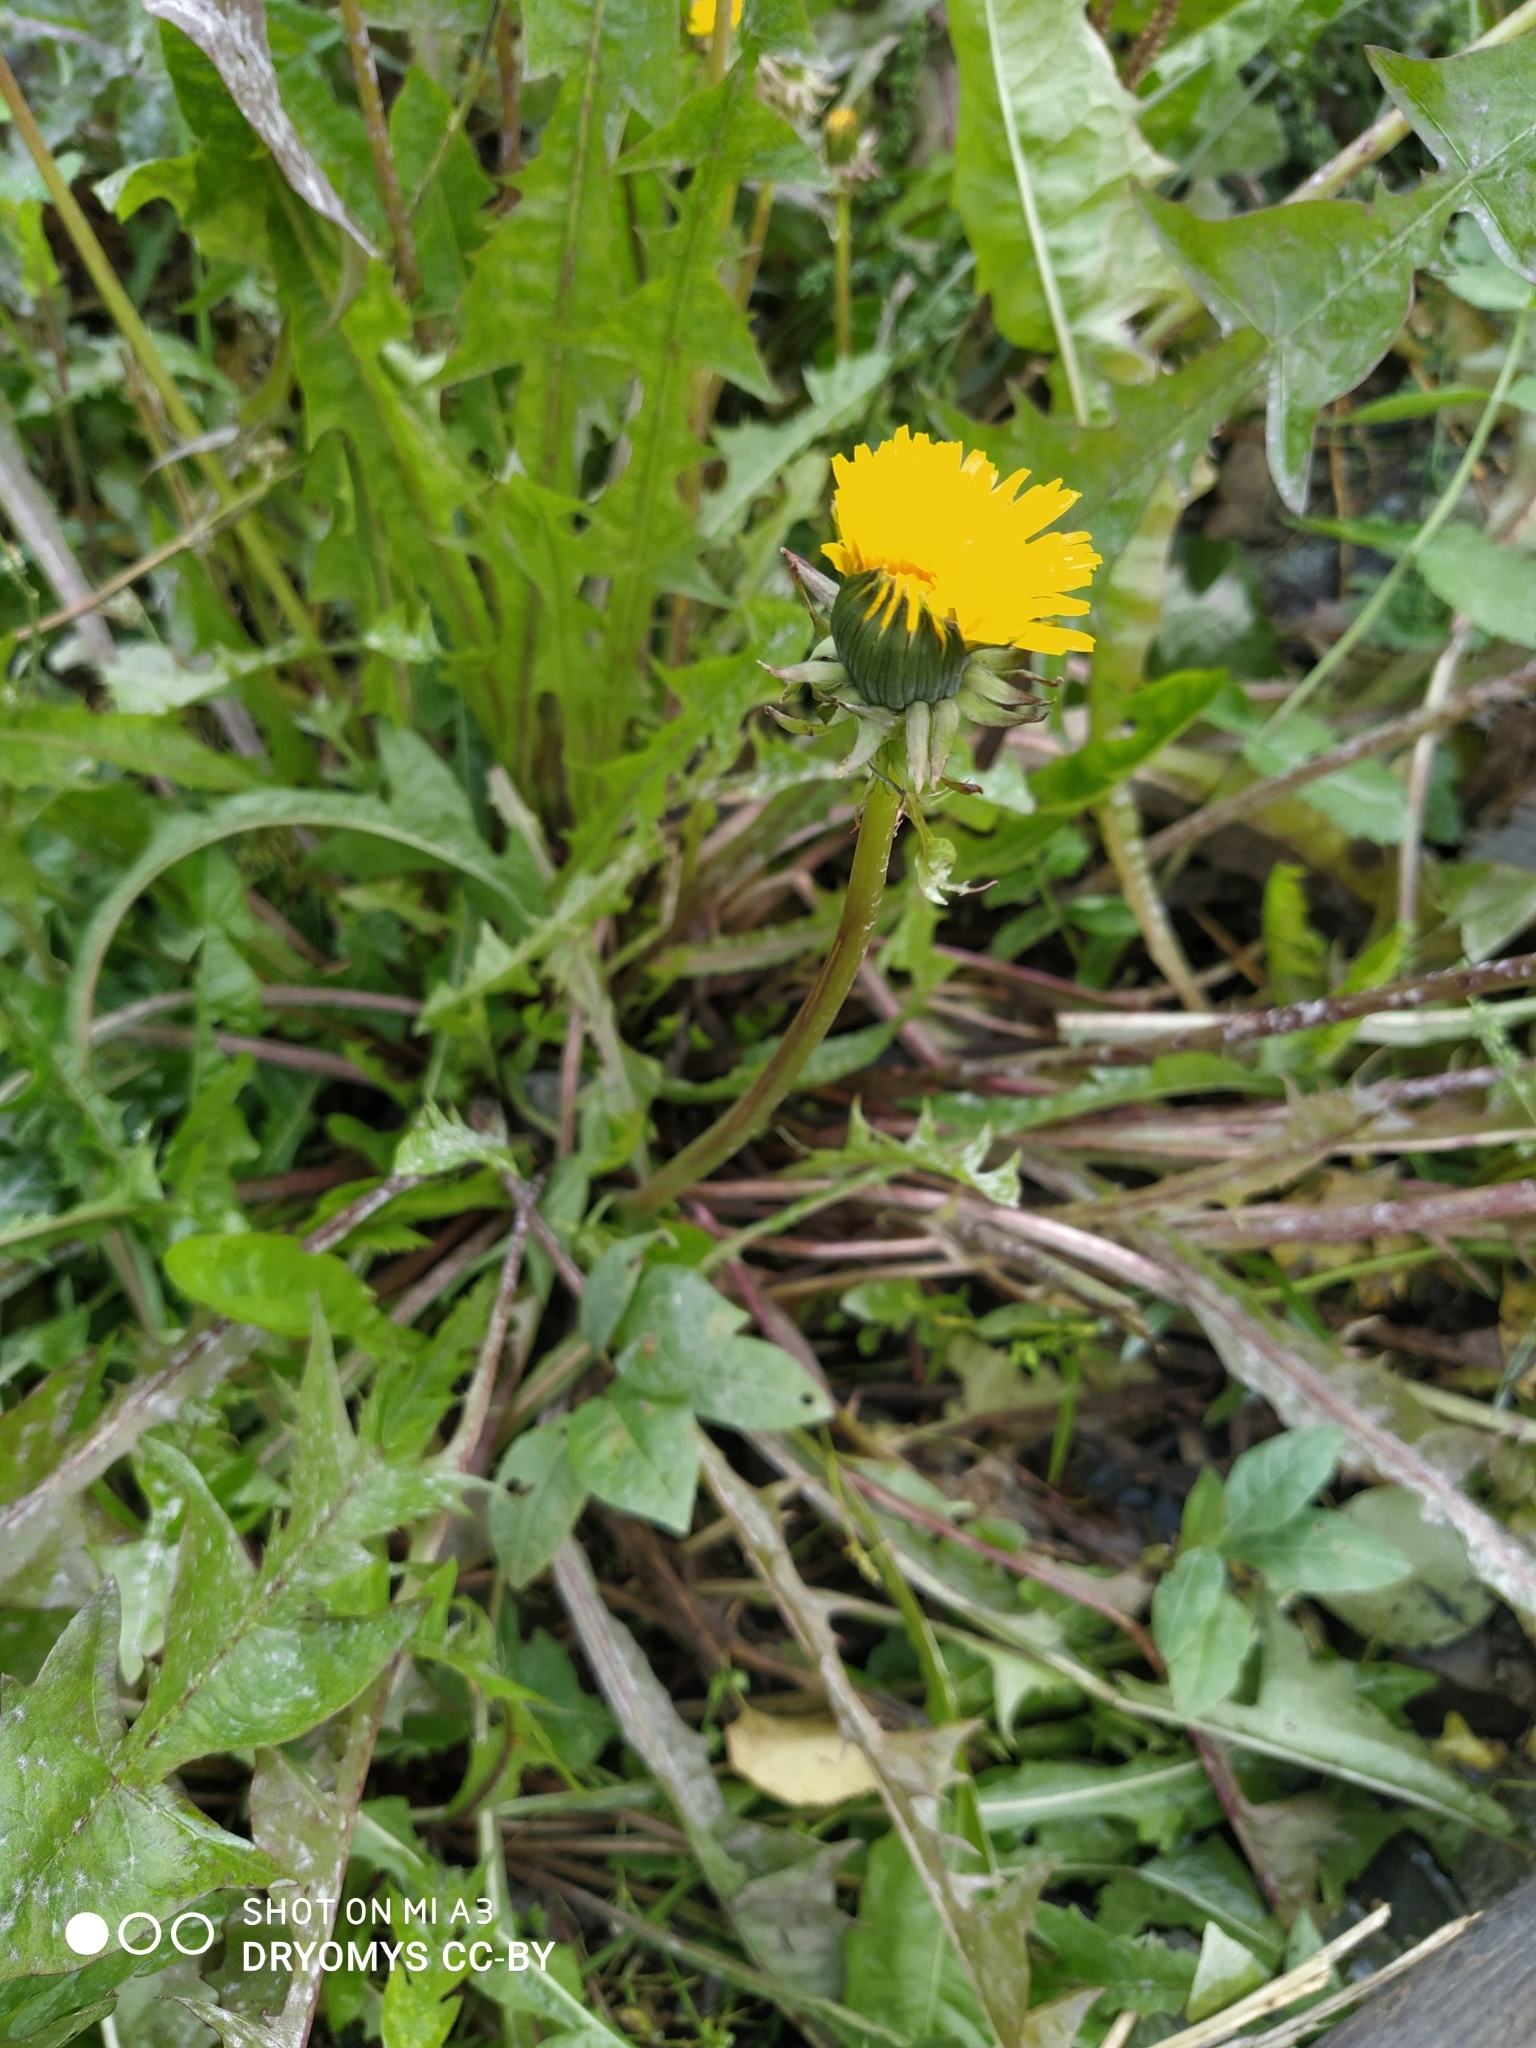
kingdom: Plantae
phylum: Tracheophyta
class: Magnoliopsida
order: Asterales
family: Asteraceae
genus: Taraxacum
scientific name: Taraxacum officinale
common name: Common dandelion
